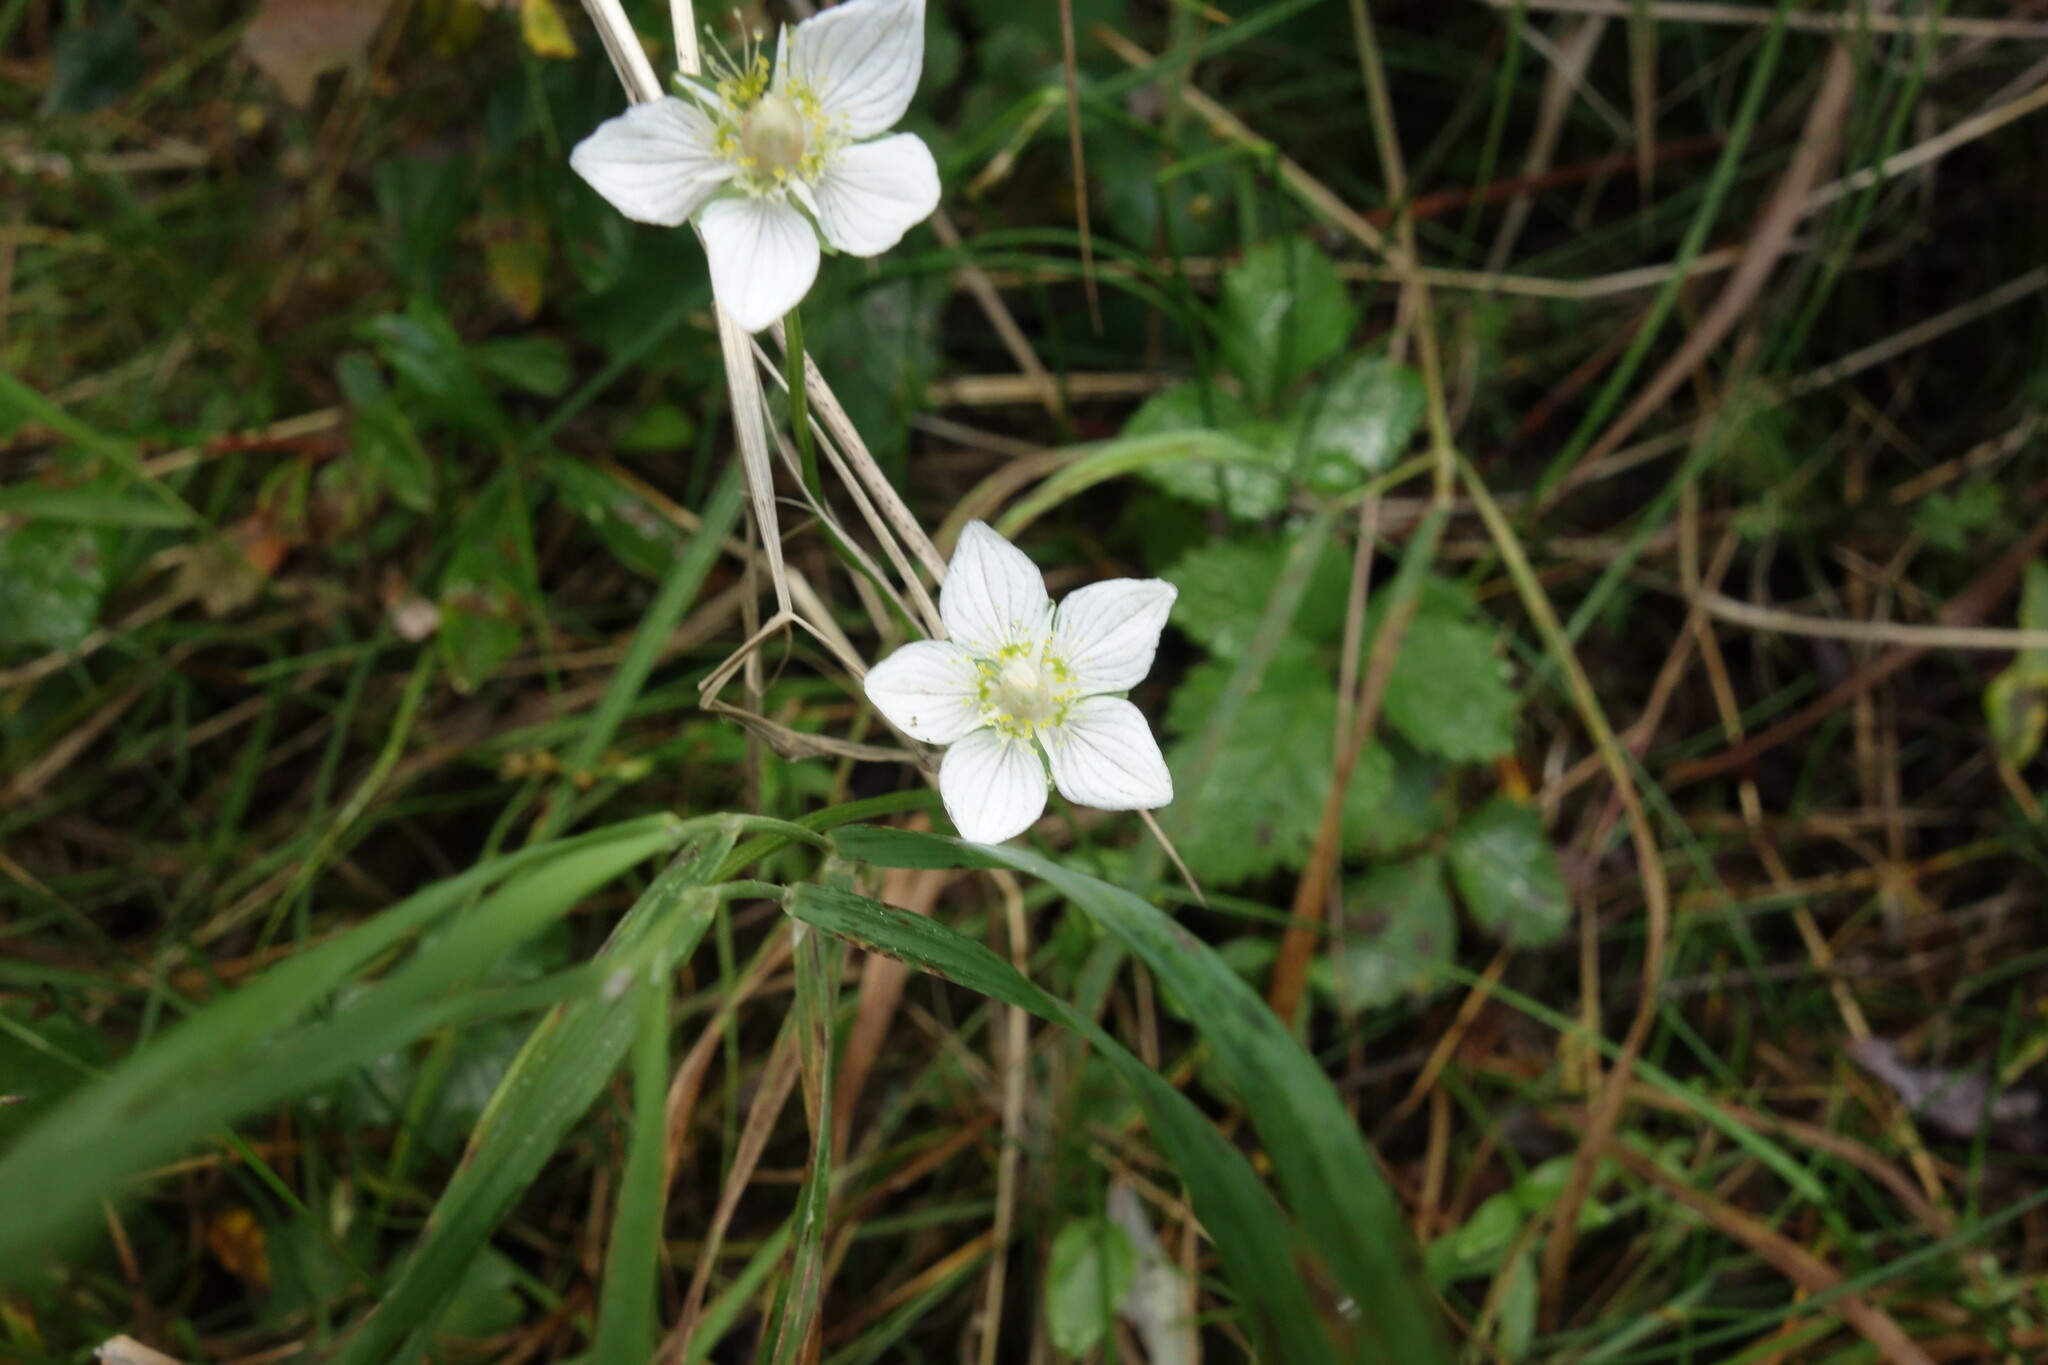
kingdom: Plantae
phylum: Tracheophyta
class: Magnoliopsida
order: Celastrales
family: Parnassiaceae
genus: Parnassia
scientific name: Parnassia palustris
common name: Grass-of-parnassus
